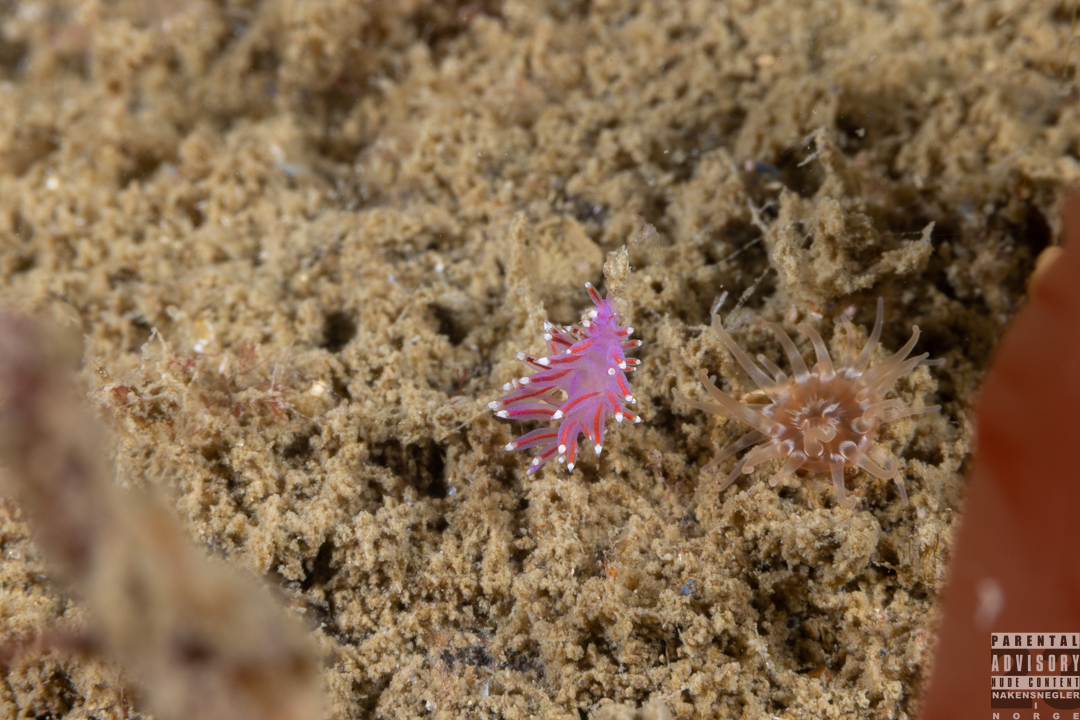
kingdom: Animalia
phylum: Mollusca
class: Gastropoda
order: Nudibranchia
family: Flabellinidae
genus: Edmundsella
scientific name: Edmundsella pedata
